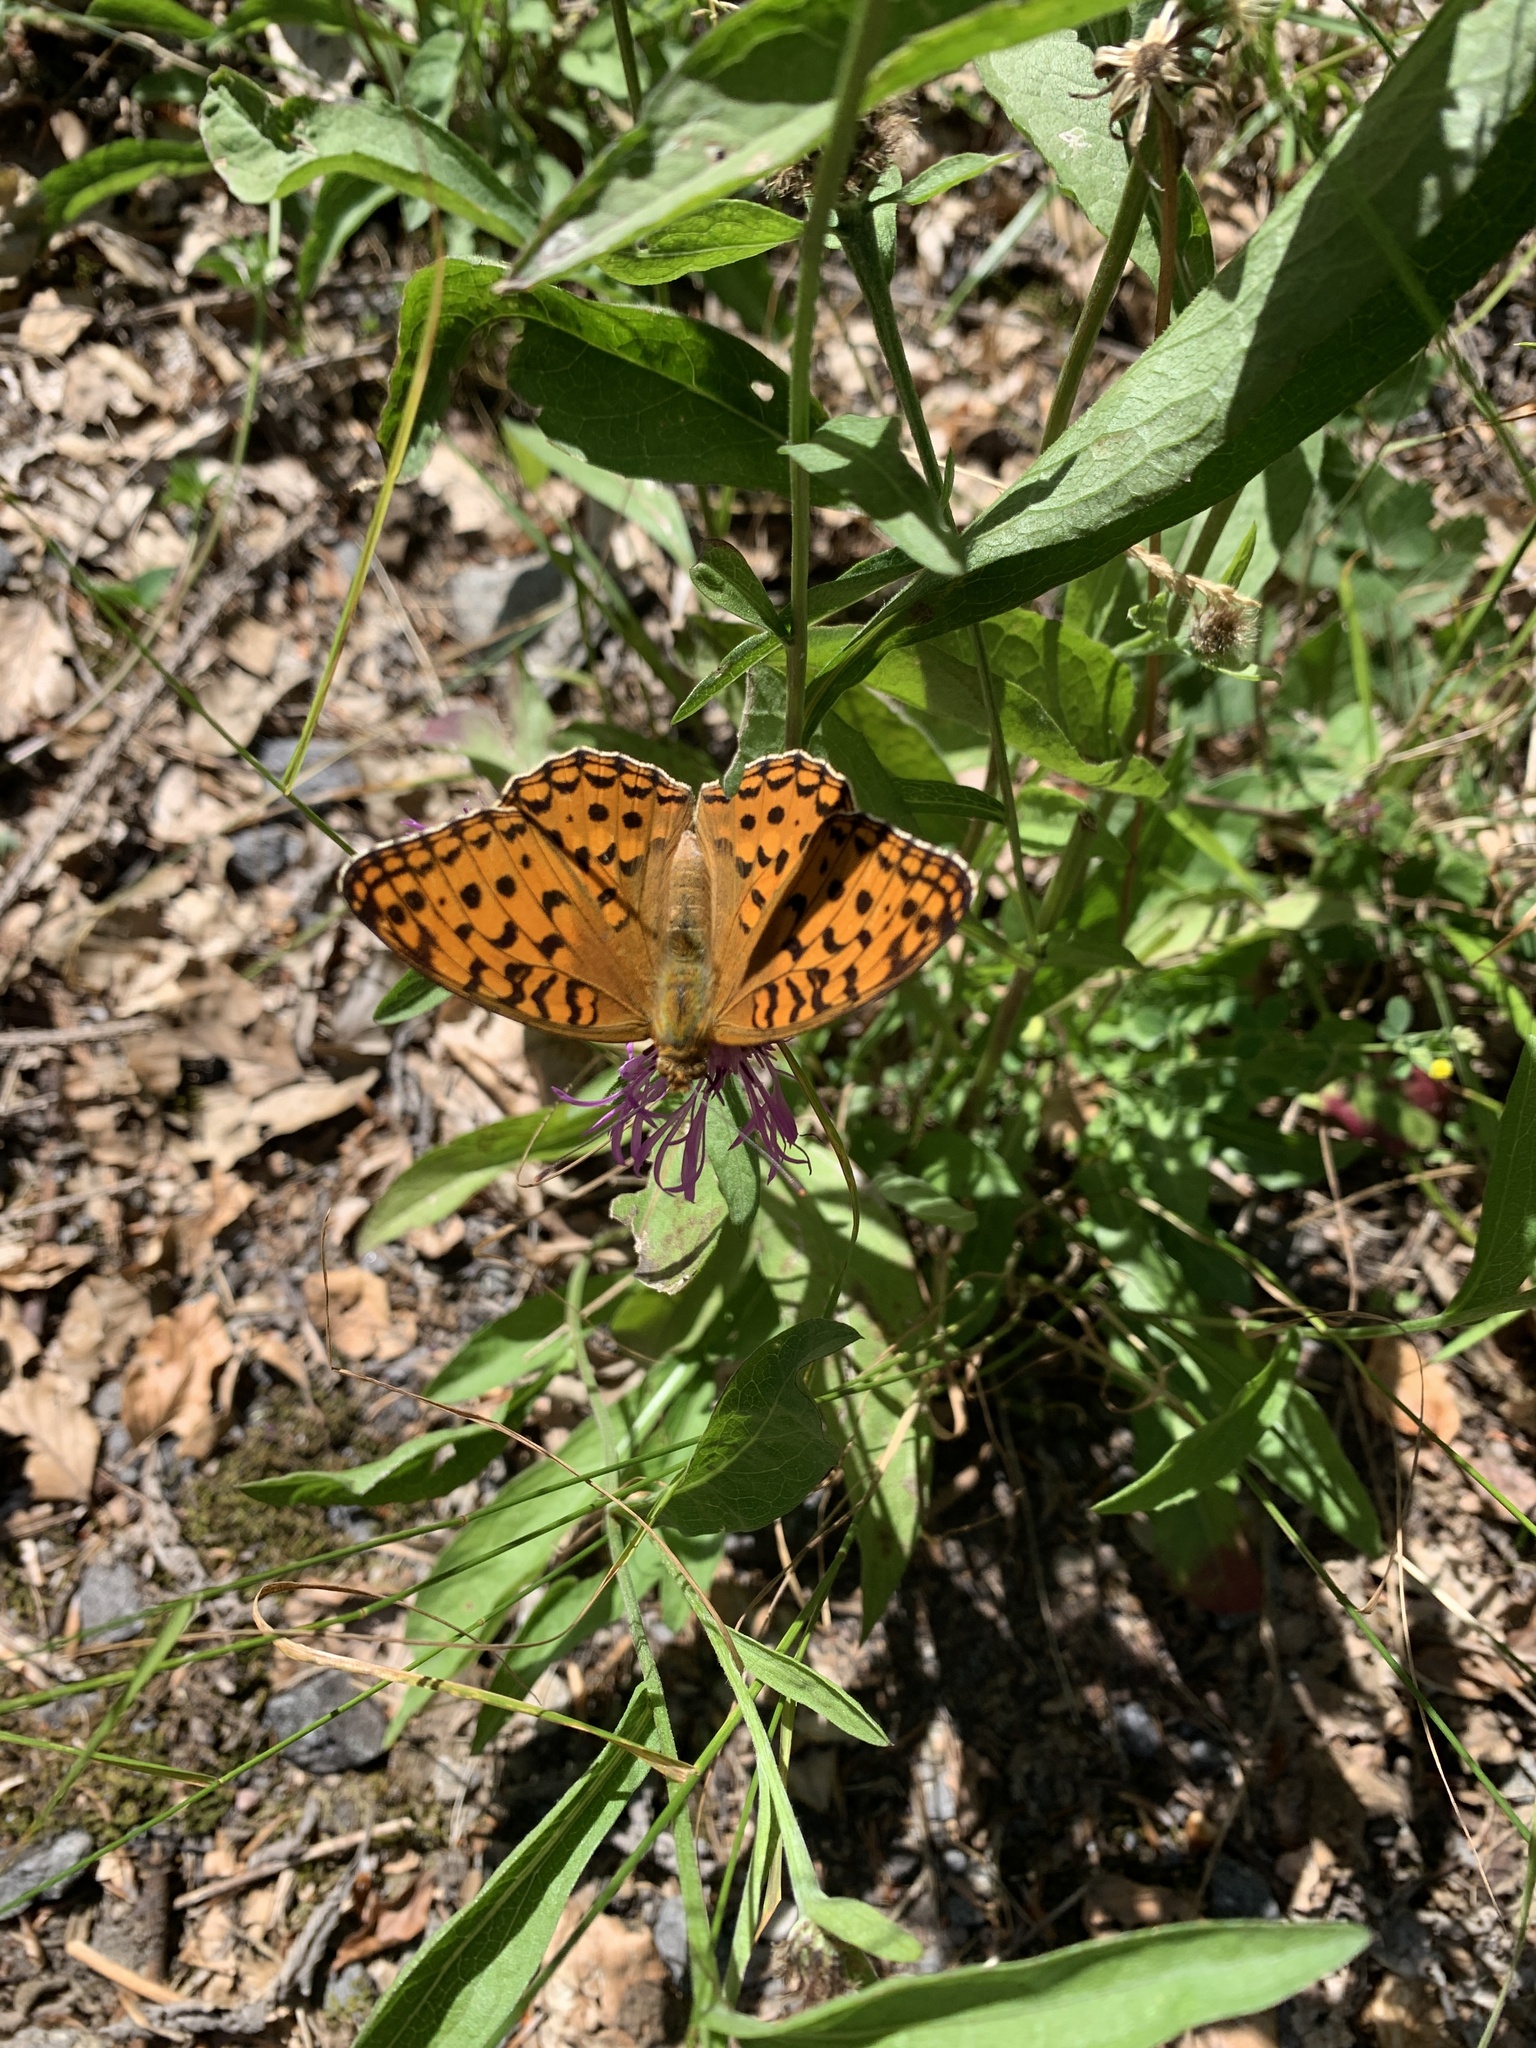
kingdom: Animalia
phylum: Arthropoda
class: Insecta
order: Lepidoptera
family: Nymphalidae
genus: Fabriciana
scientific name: Fabriciana adippe
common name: High brown fritillary
